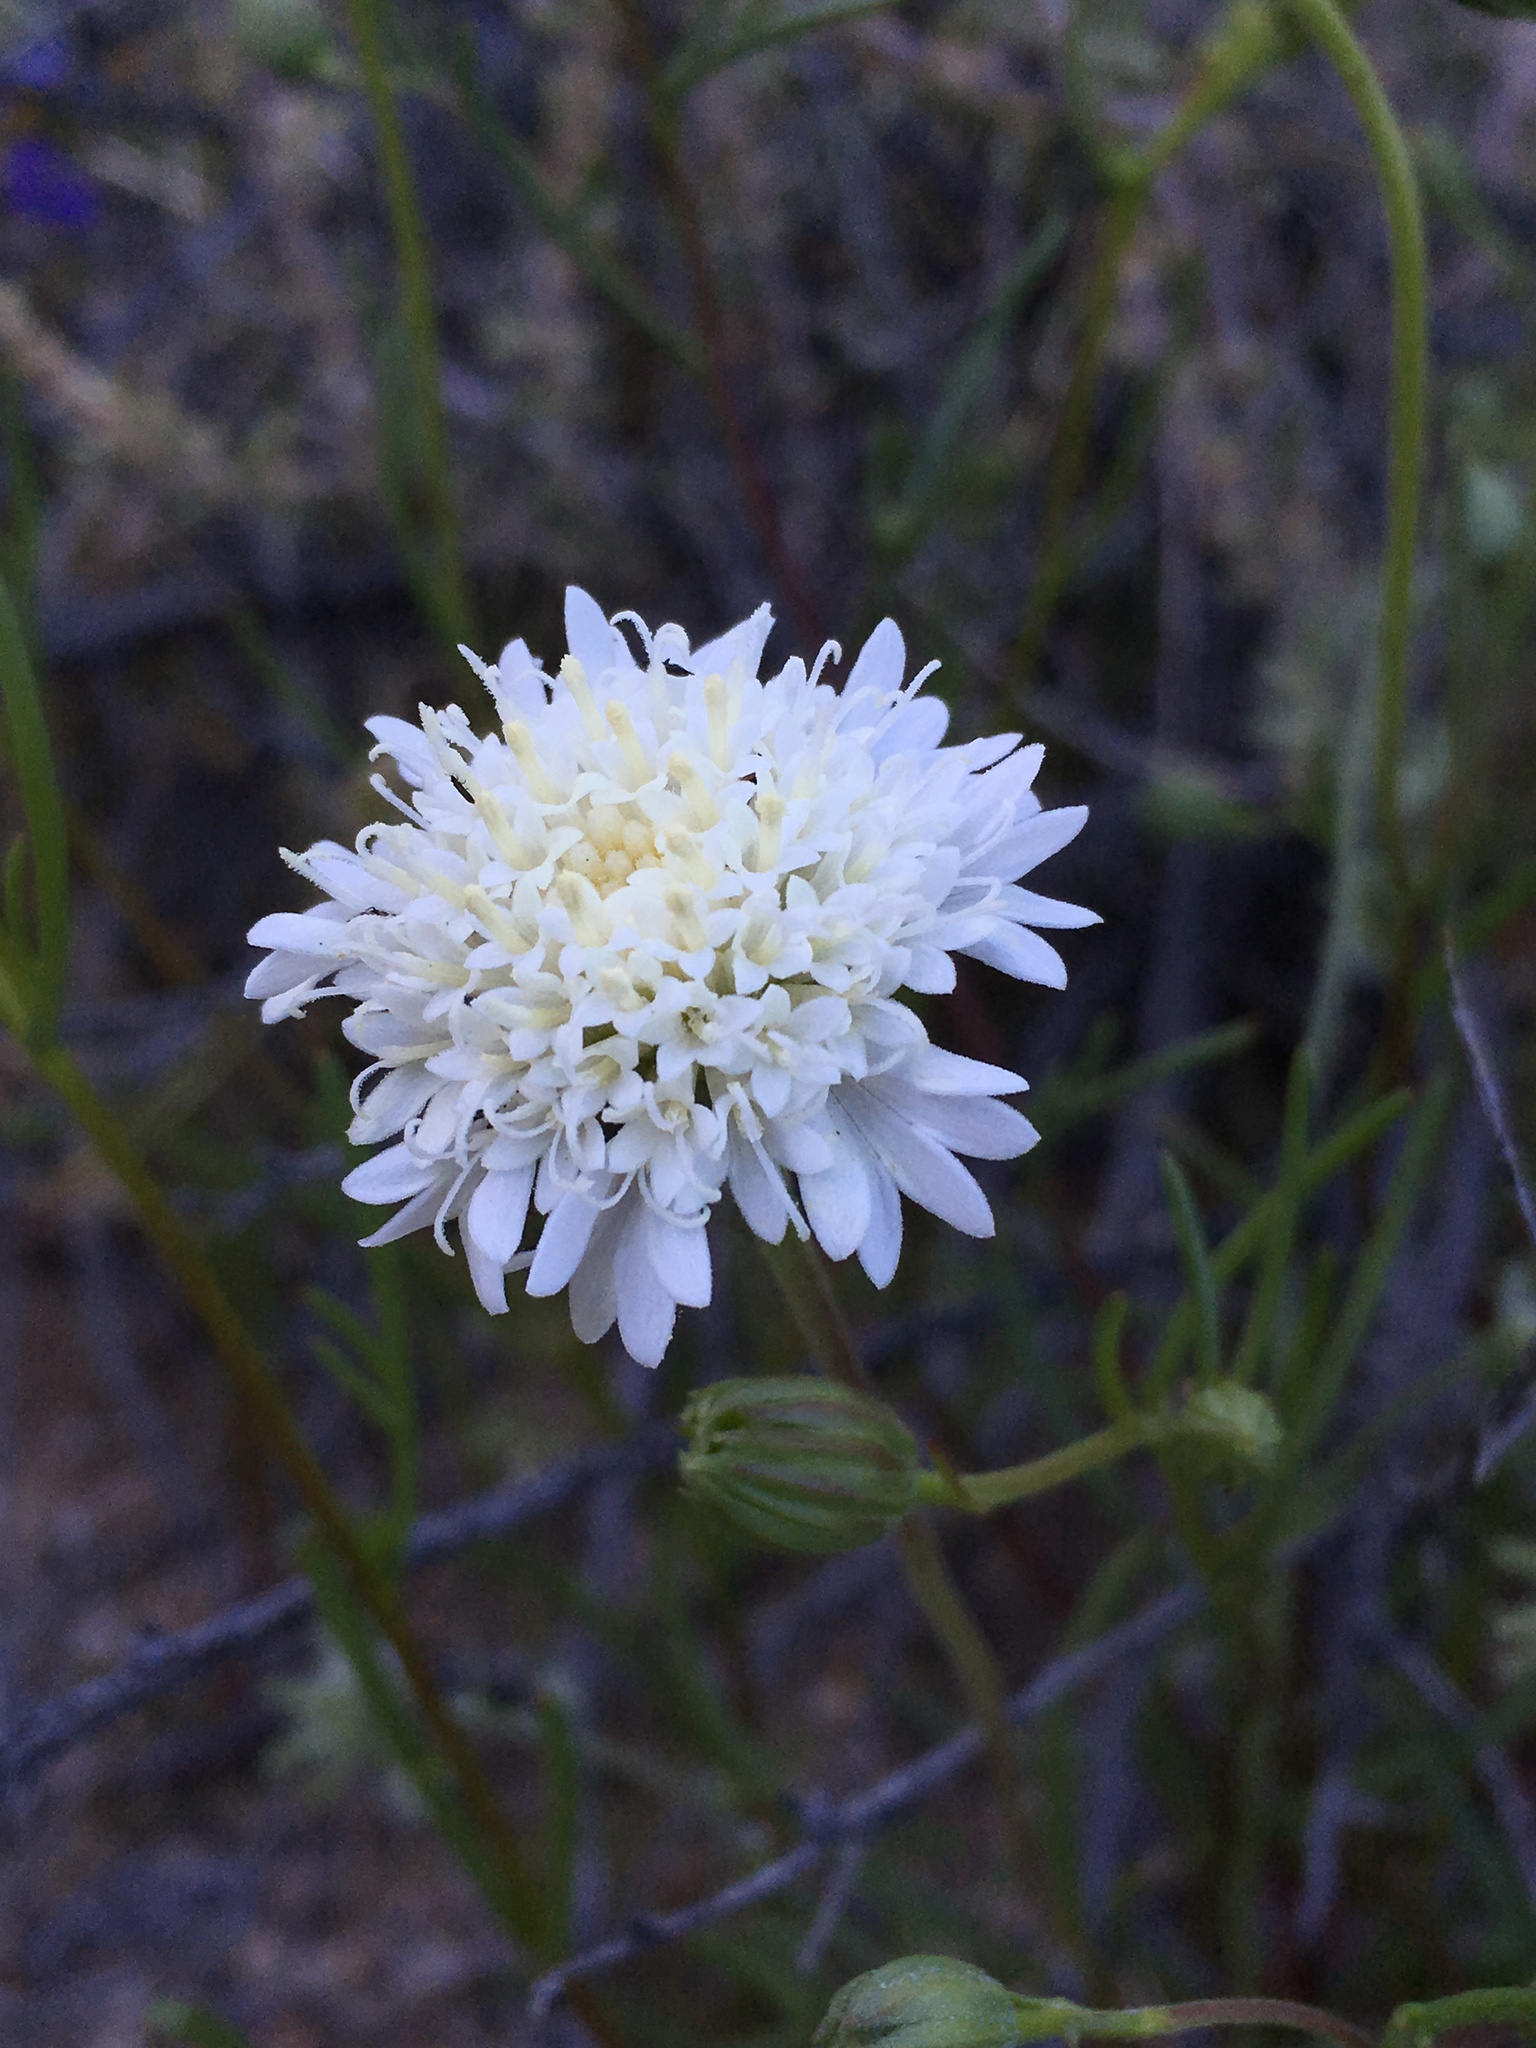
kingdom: Plantae
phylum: Tracheophyta
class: Magnoliopsida
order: Asterales
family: Asteraceae
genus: Chaenactis
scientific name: Chaenactis fremontii
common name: Fremont pincushion
